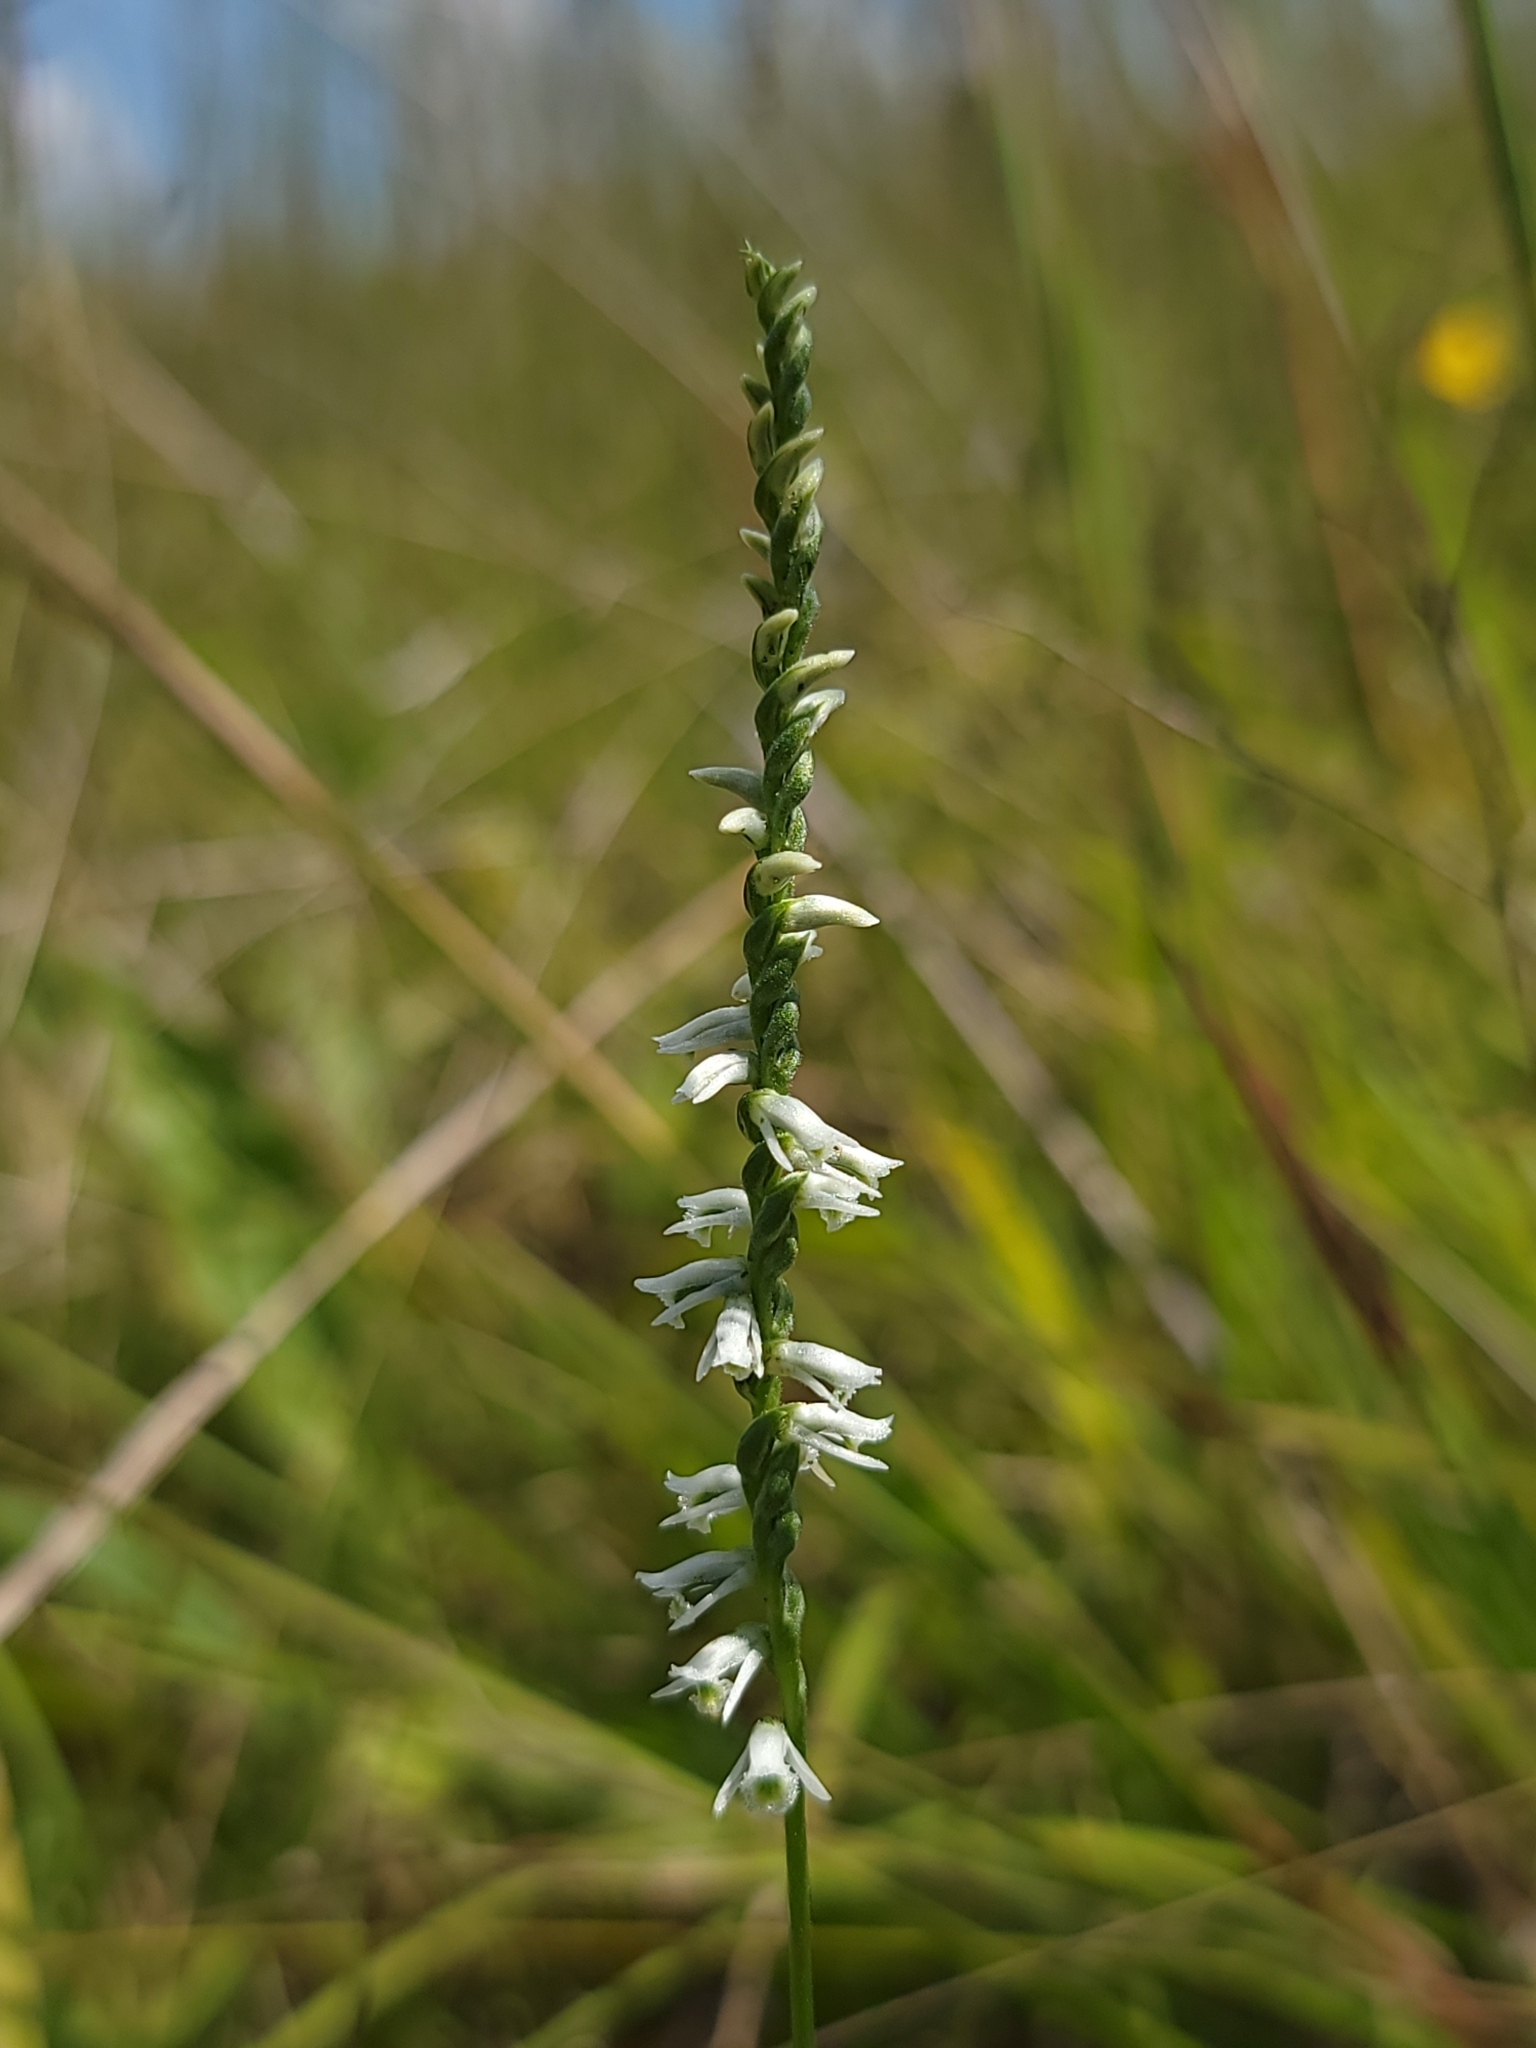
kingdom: Plantae
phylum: Tracheophyta
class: Liliopsida
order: Asparagales
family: Orchidaceae
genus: Spiranthes
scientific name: Spiranthes lacera
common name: Northern slender ladies'-tresses
